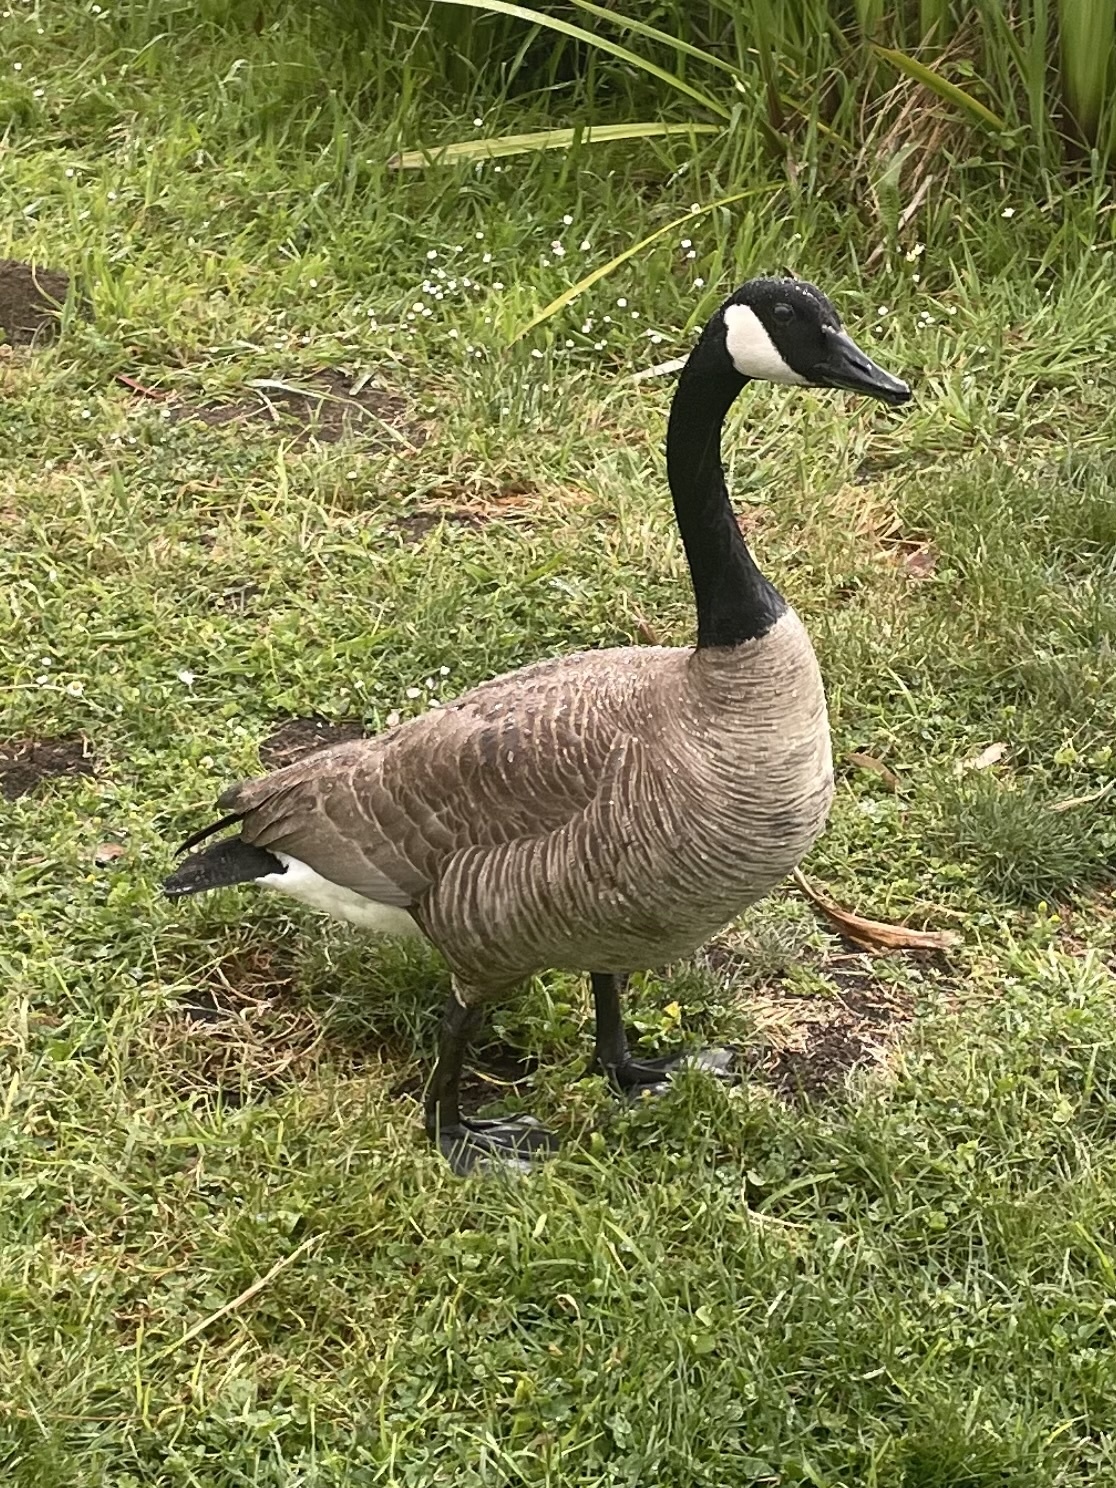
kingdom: Animalia
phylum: Chordata
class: Aves
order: Anseriformes
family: Anatidae
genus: Branta
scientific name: Branta canadensis
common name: Canada goose
